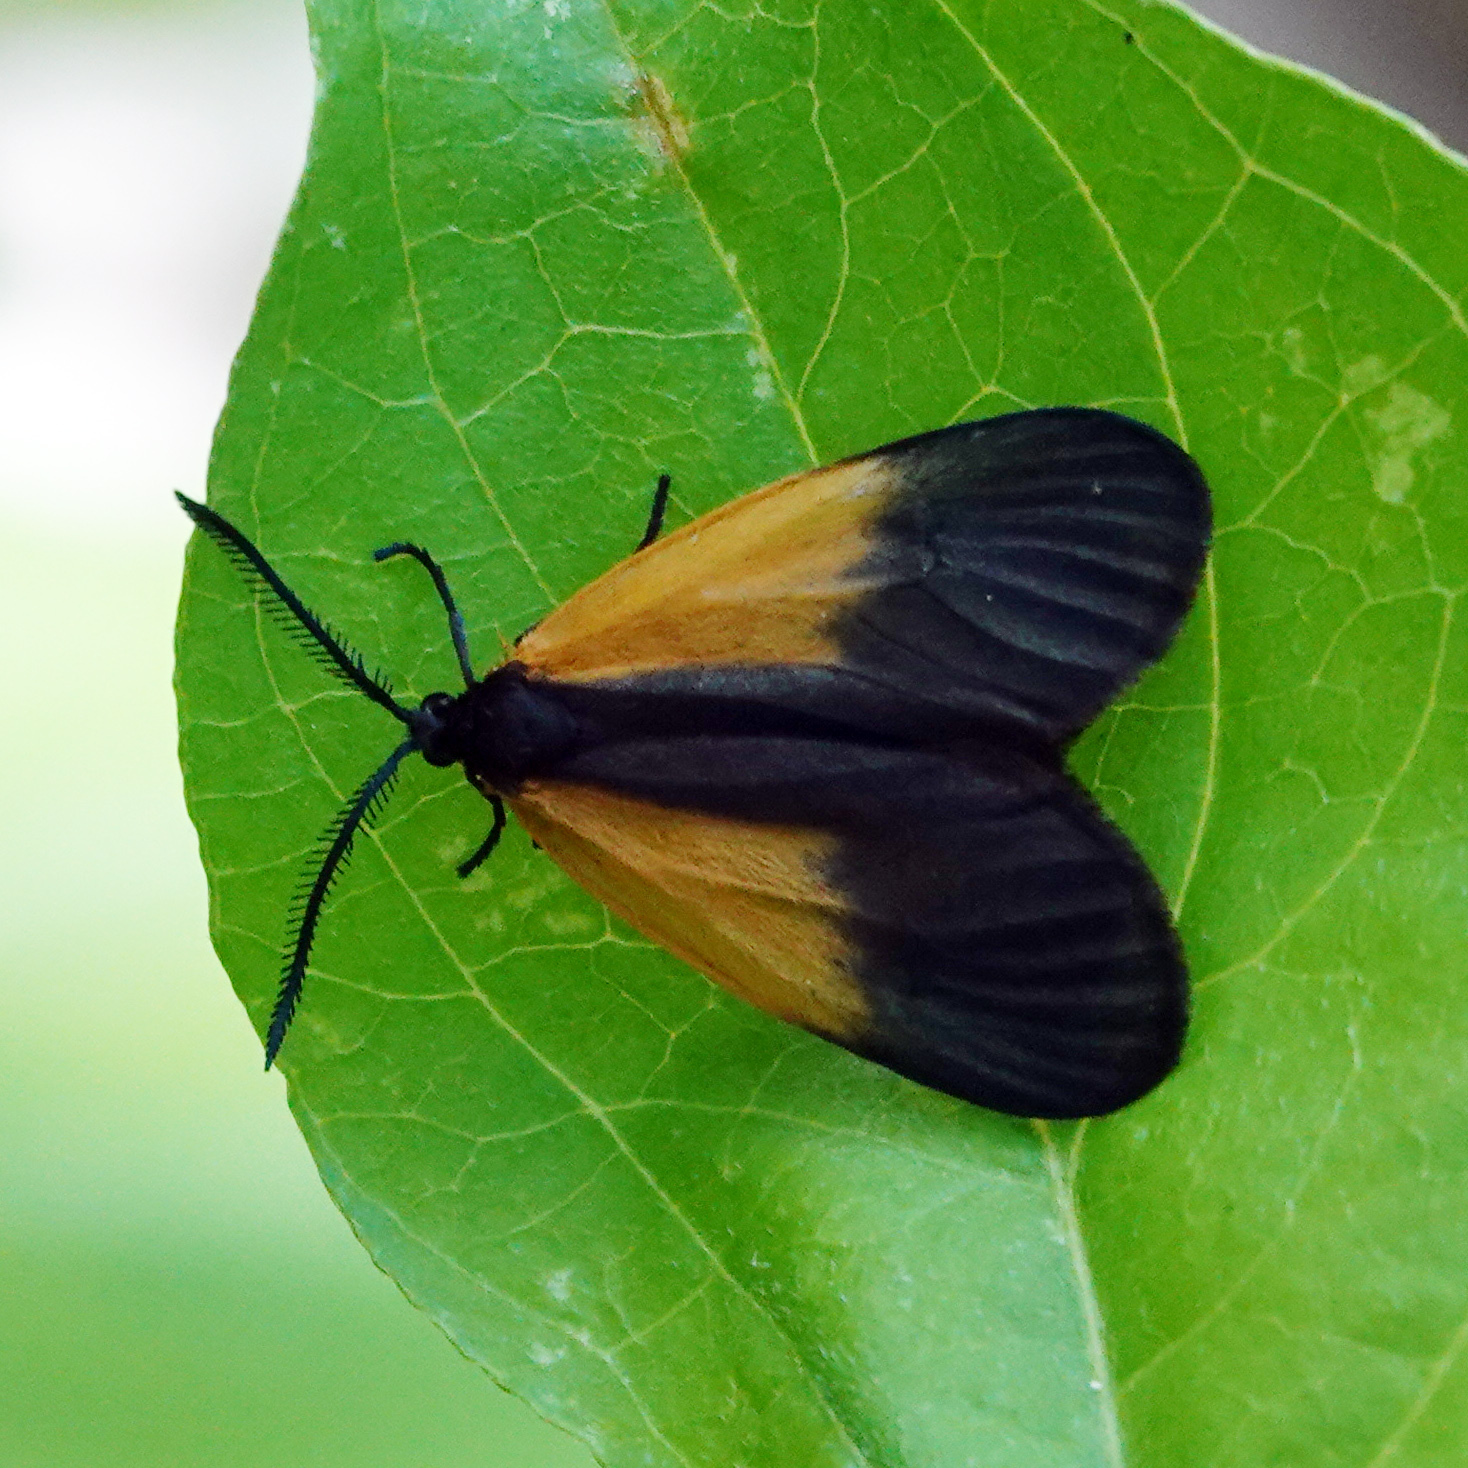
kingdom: Animalia
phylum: Arthropoda
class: Insecta
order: Lepidoptera
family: Zygaenidae
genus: Malthaca
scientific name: Malthaca dimidiata
